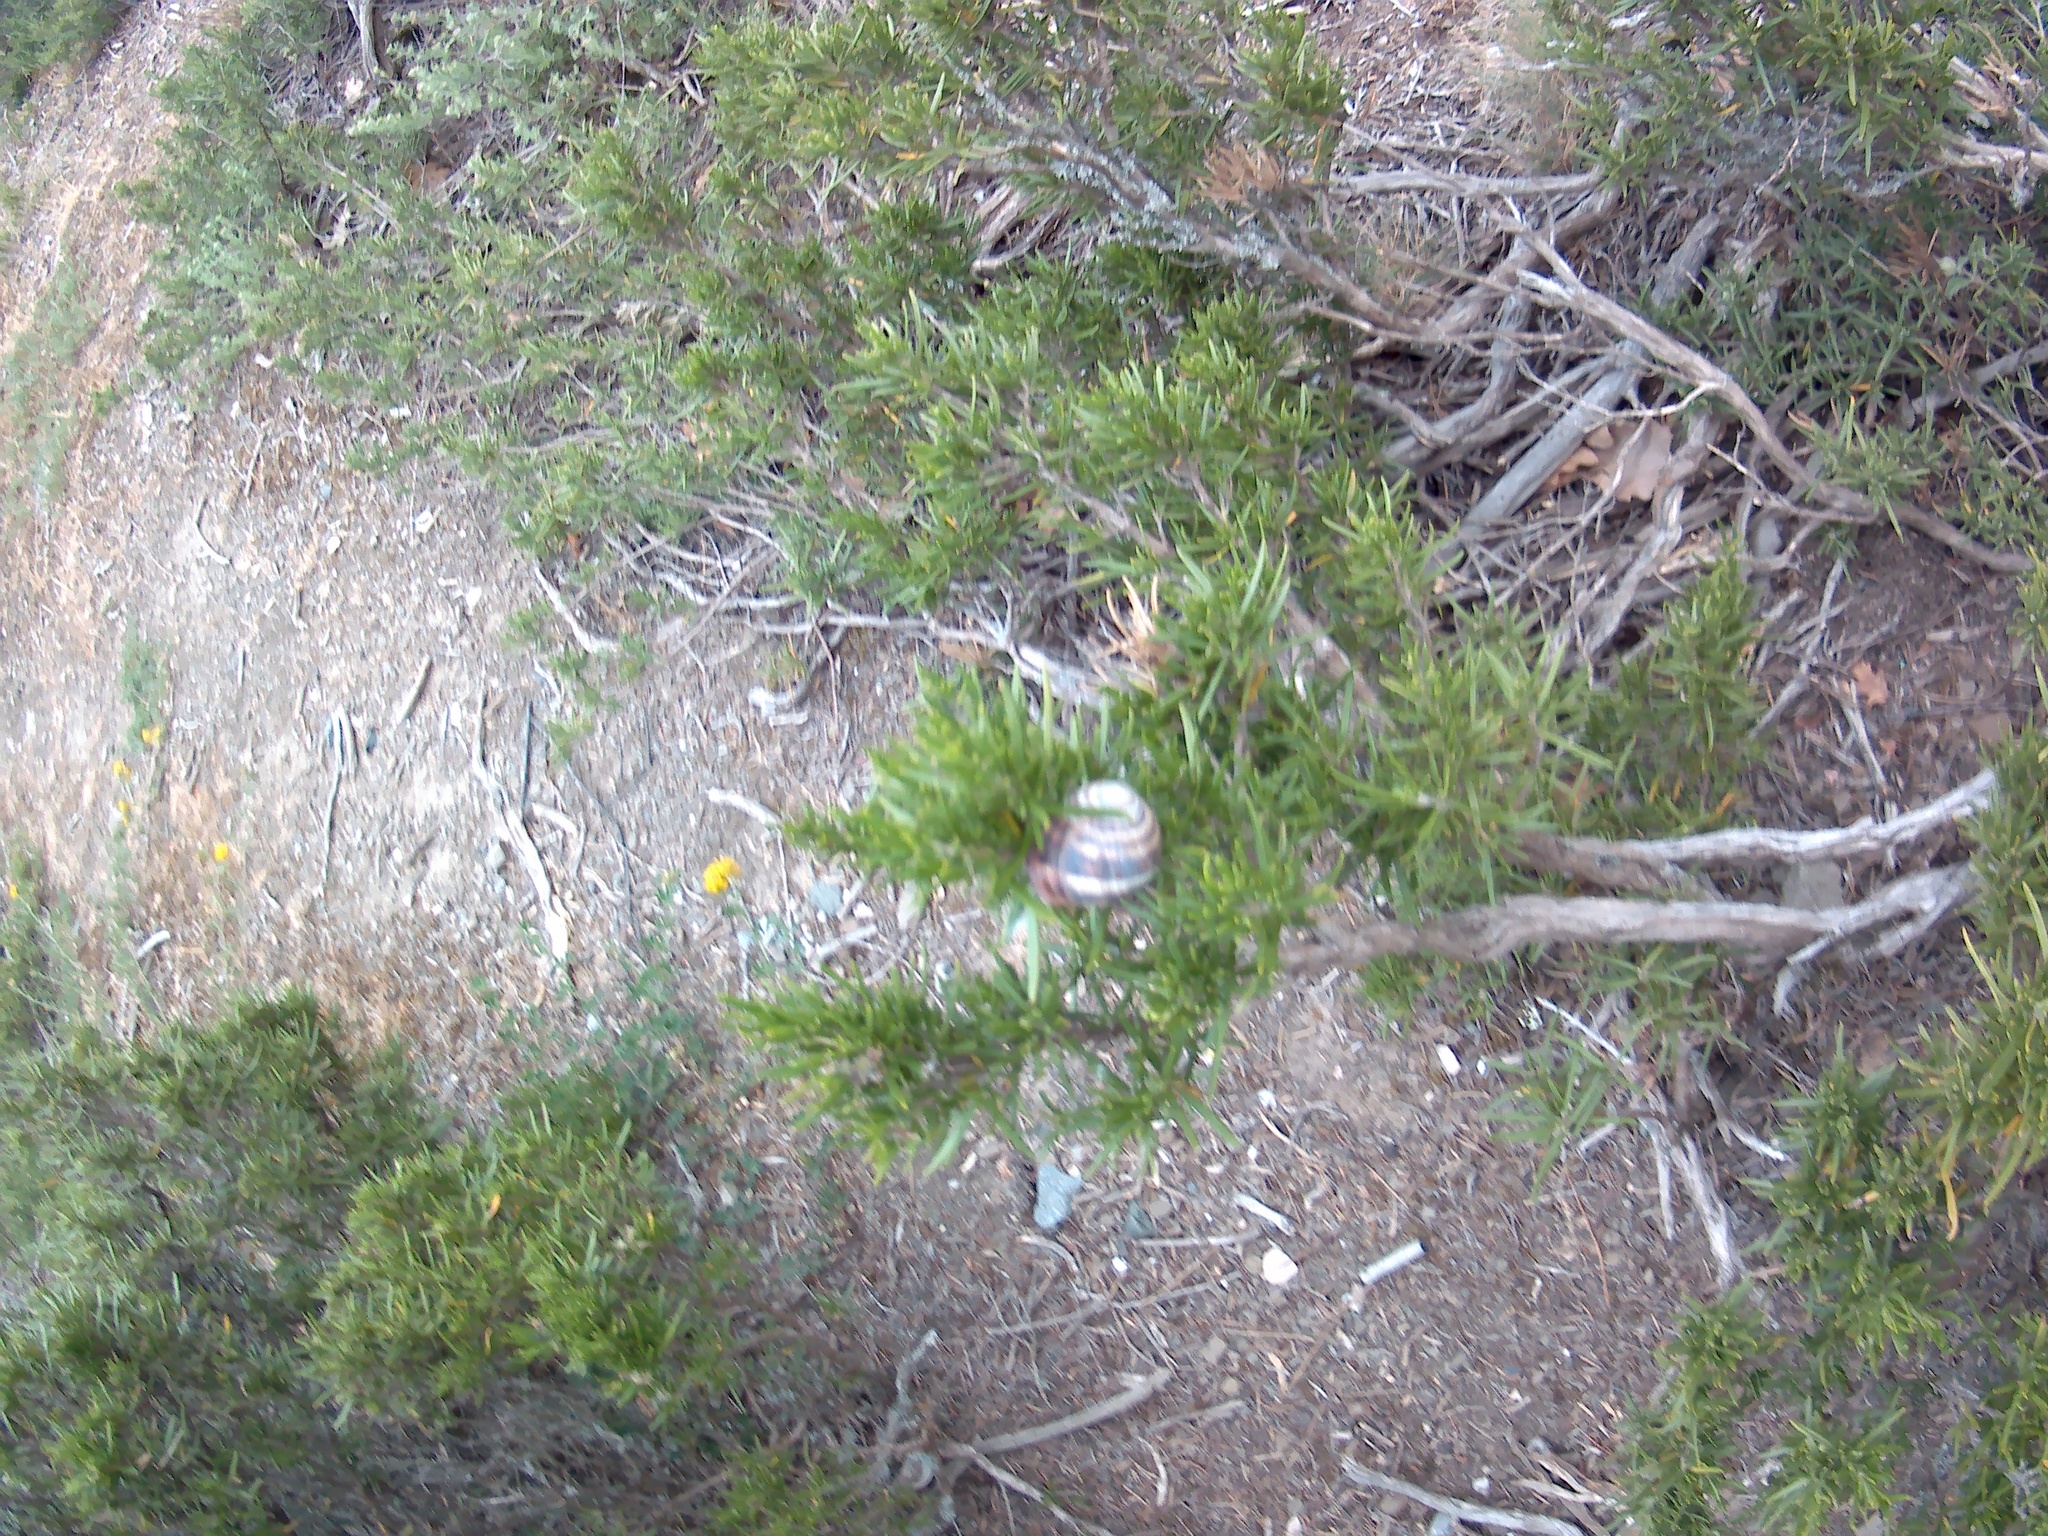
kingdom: Animalia
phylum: Mollusca
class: Gastropoda
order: Stylommatophora
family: Helicidae
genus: Helix
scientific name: Helix albescens
